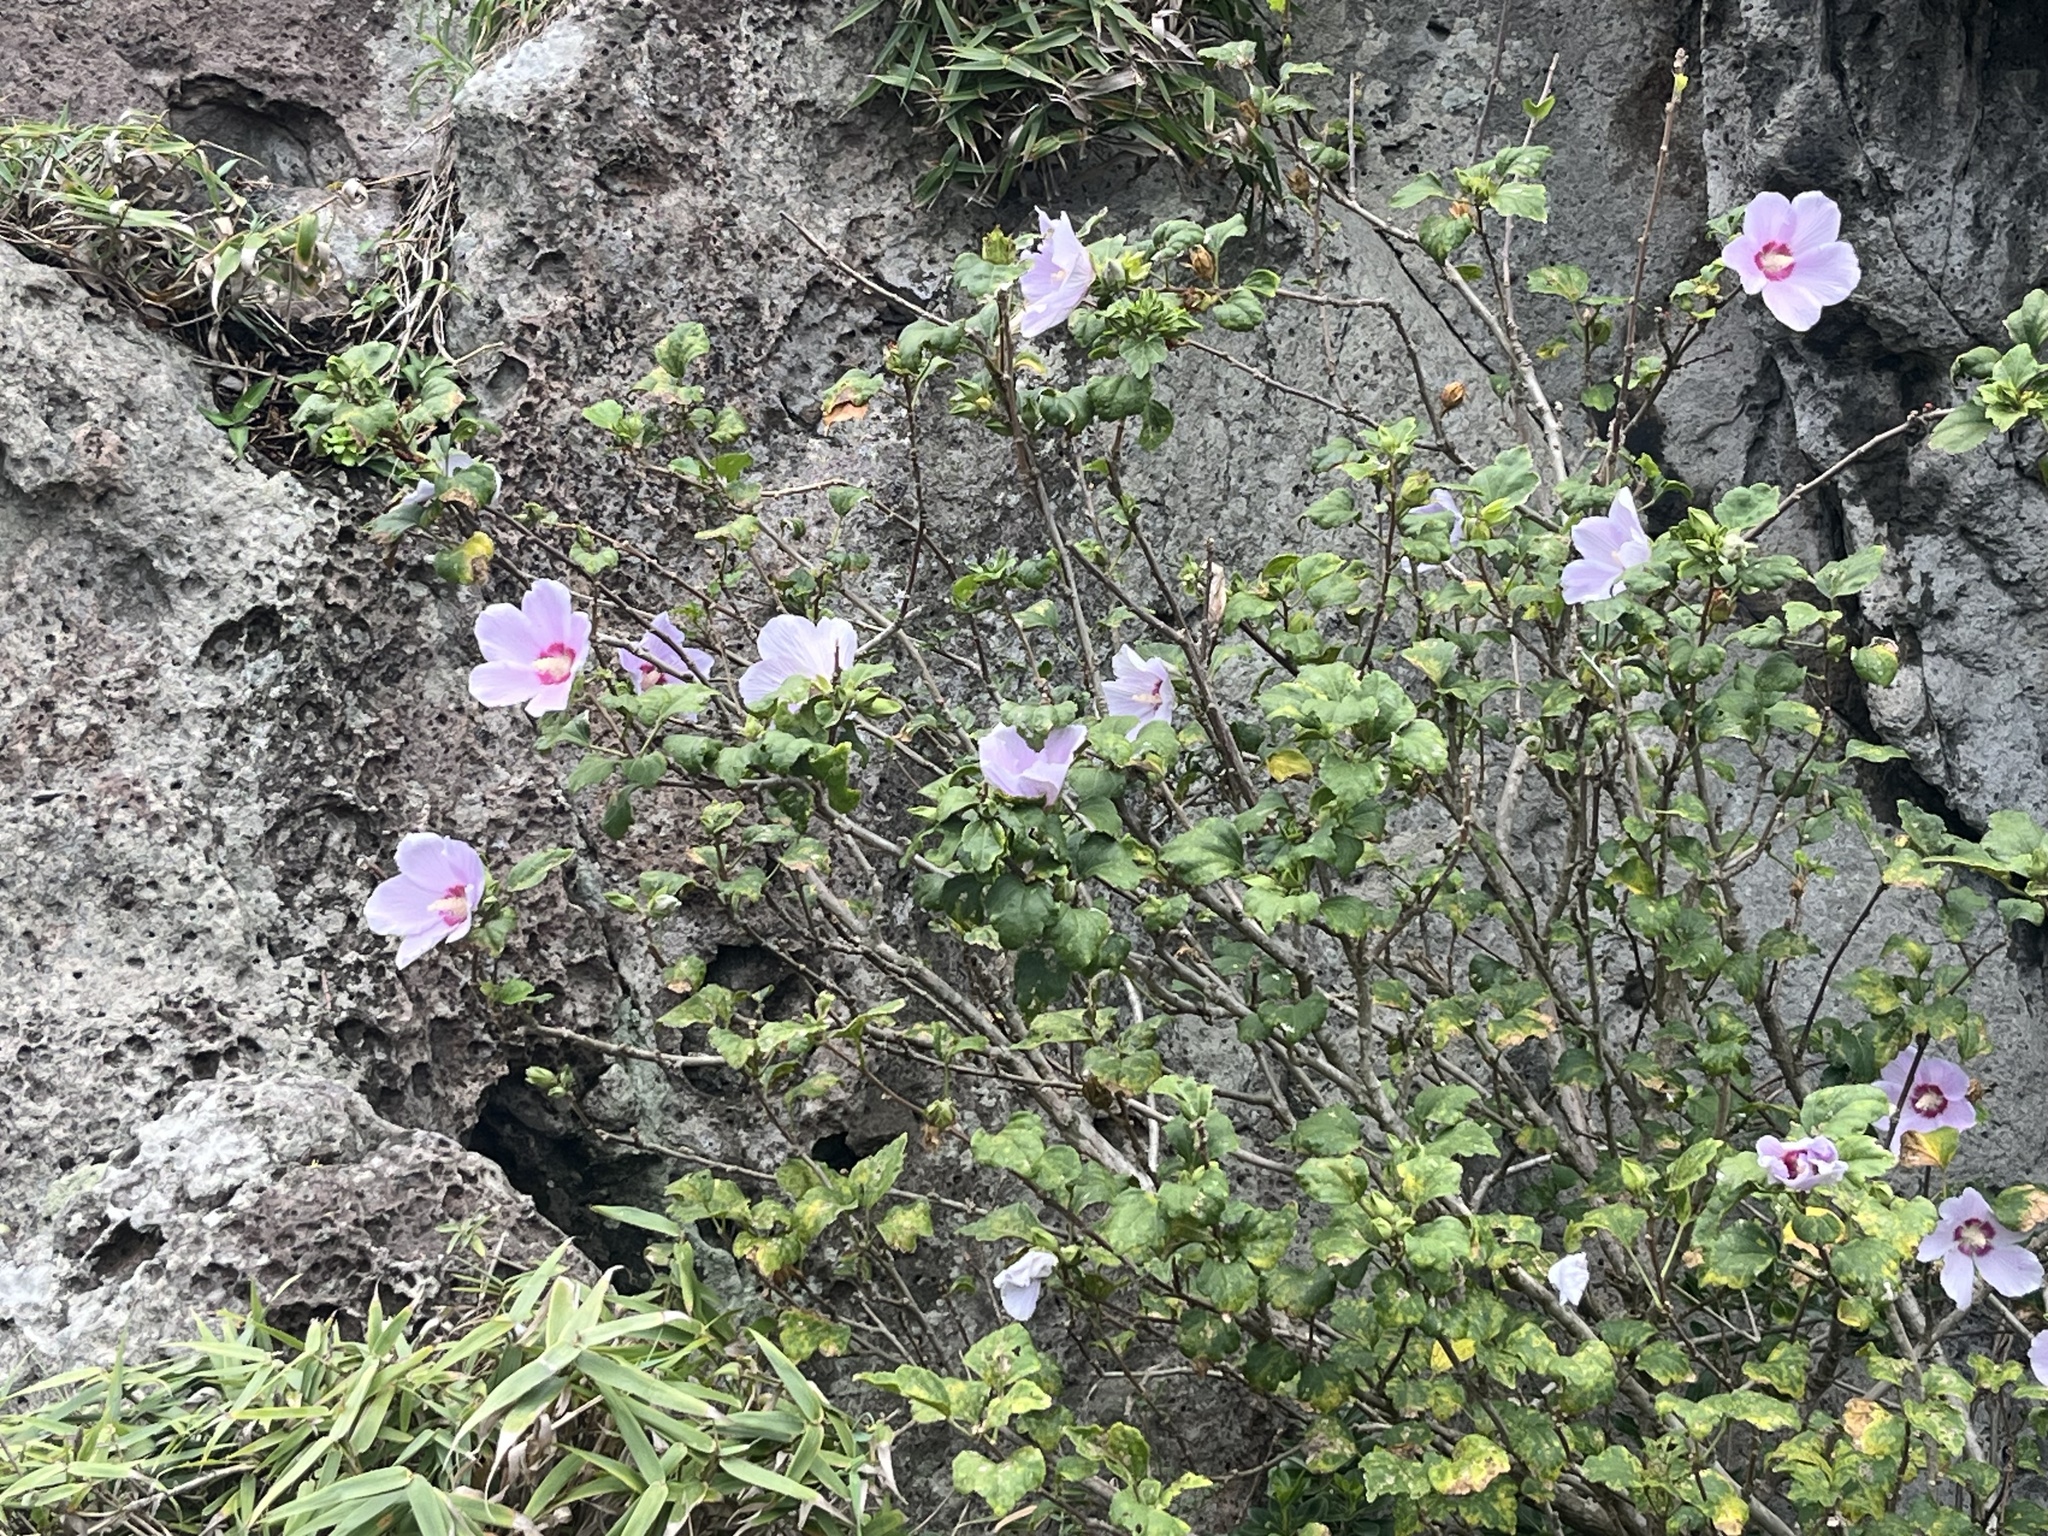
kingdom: Plantae
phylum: Tracheophyta
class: Magnoliopsida
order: Malvales
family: Malvaceae
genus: Hibiscus
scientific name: Hibiscus syriacus
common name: Syrian ketmia
